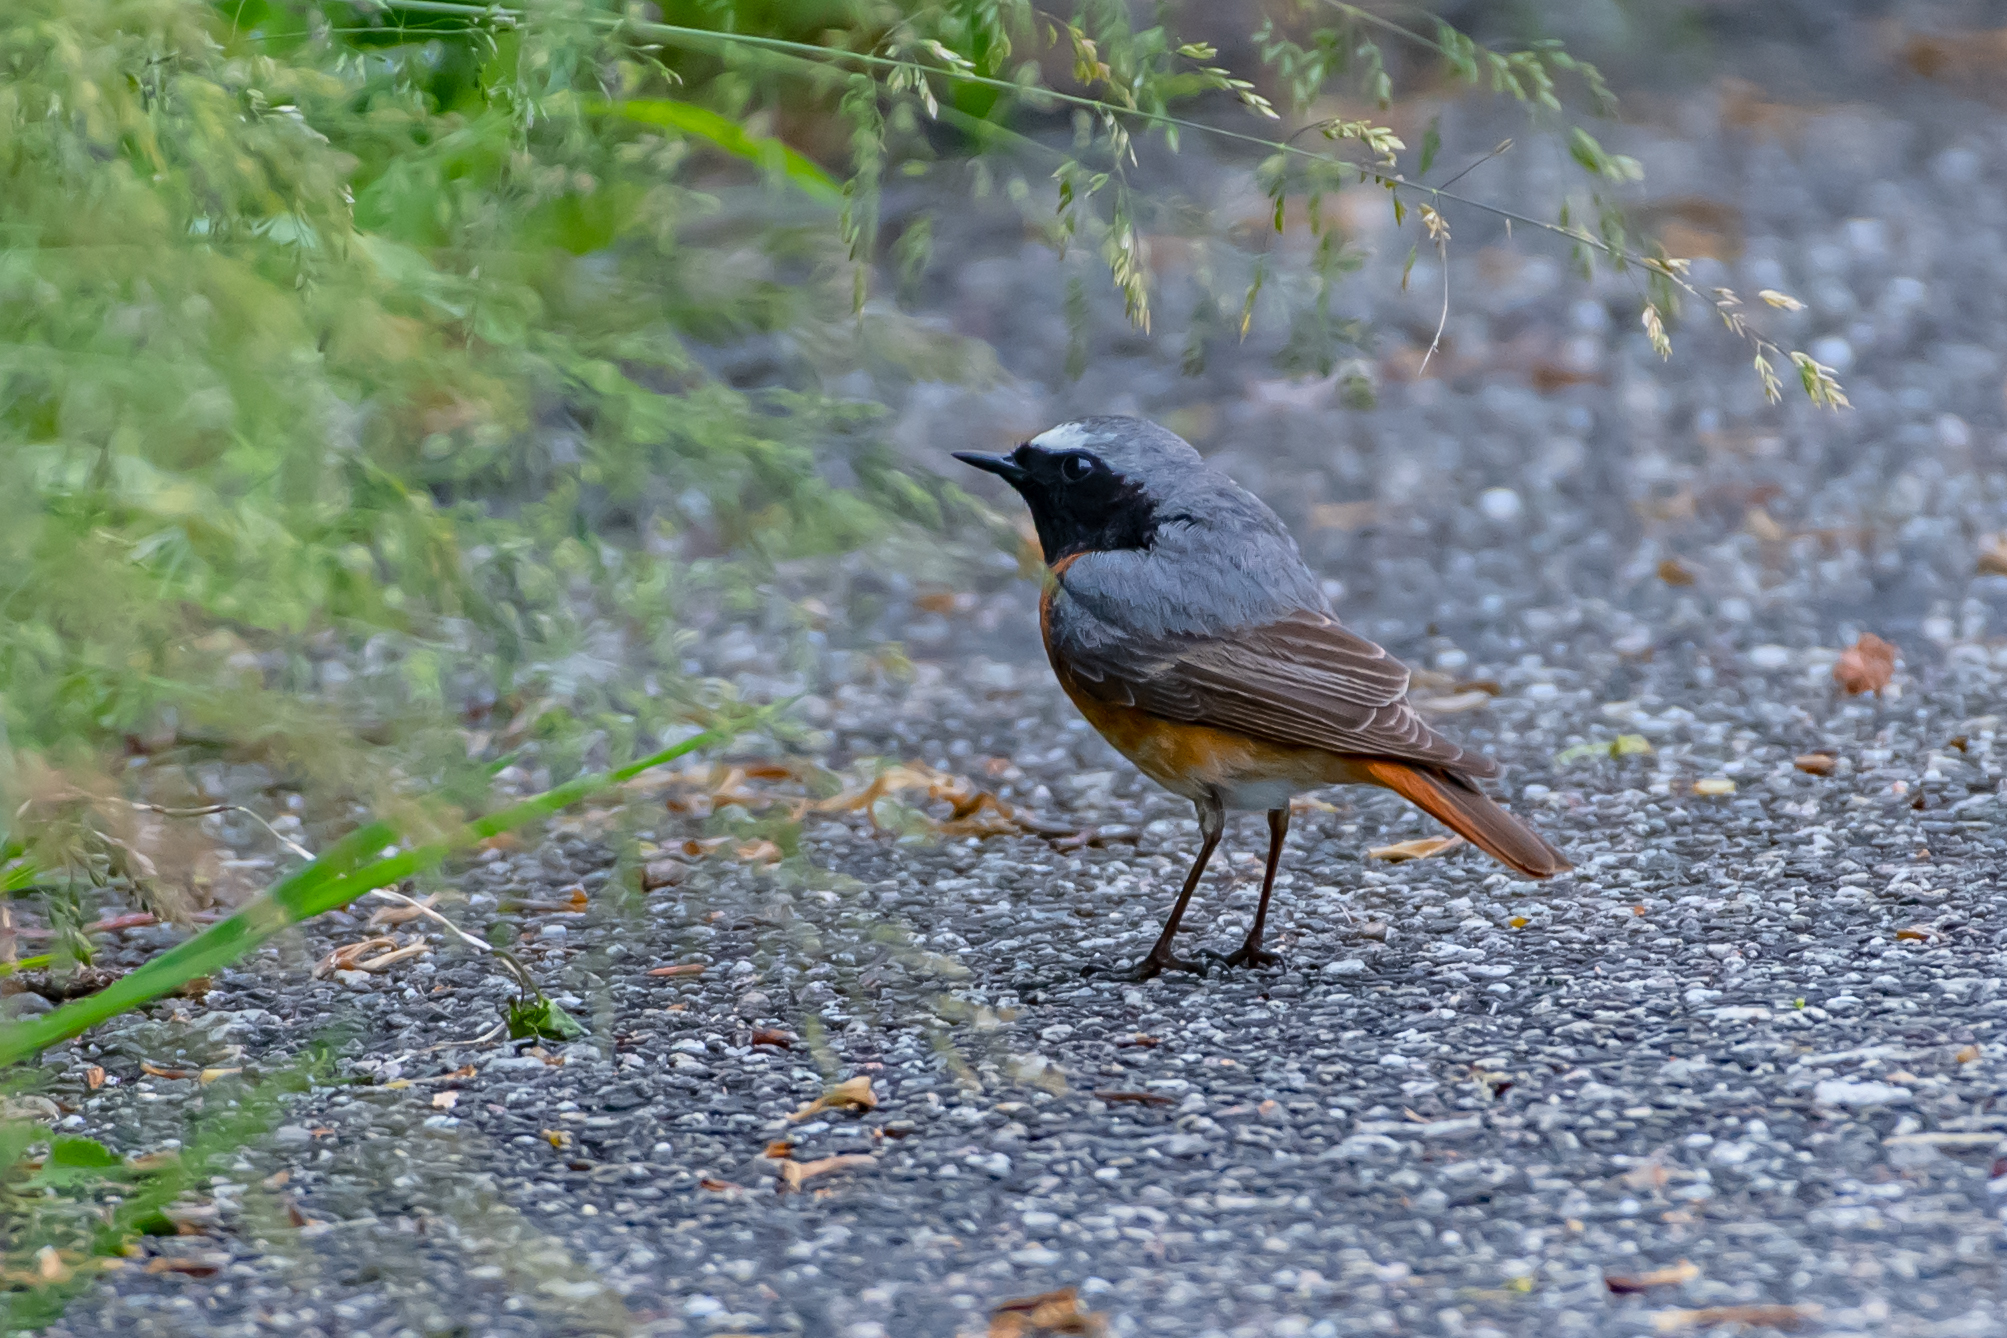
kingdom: Animalia
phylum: Chordata
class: Aves
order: Passeriformes
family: Muscicapidae
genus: Phoenicurus
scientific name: Phoenicurus phoenicurus
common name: Common redstart
